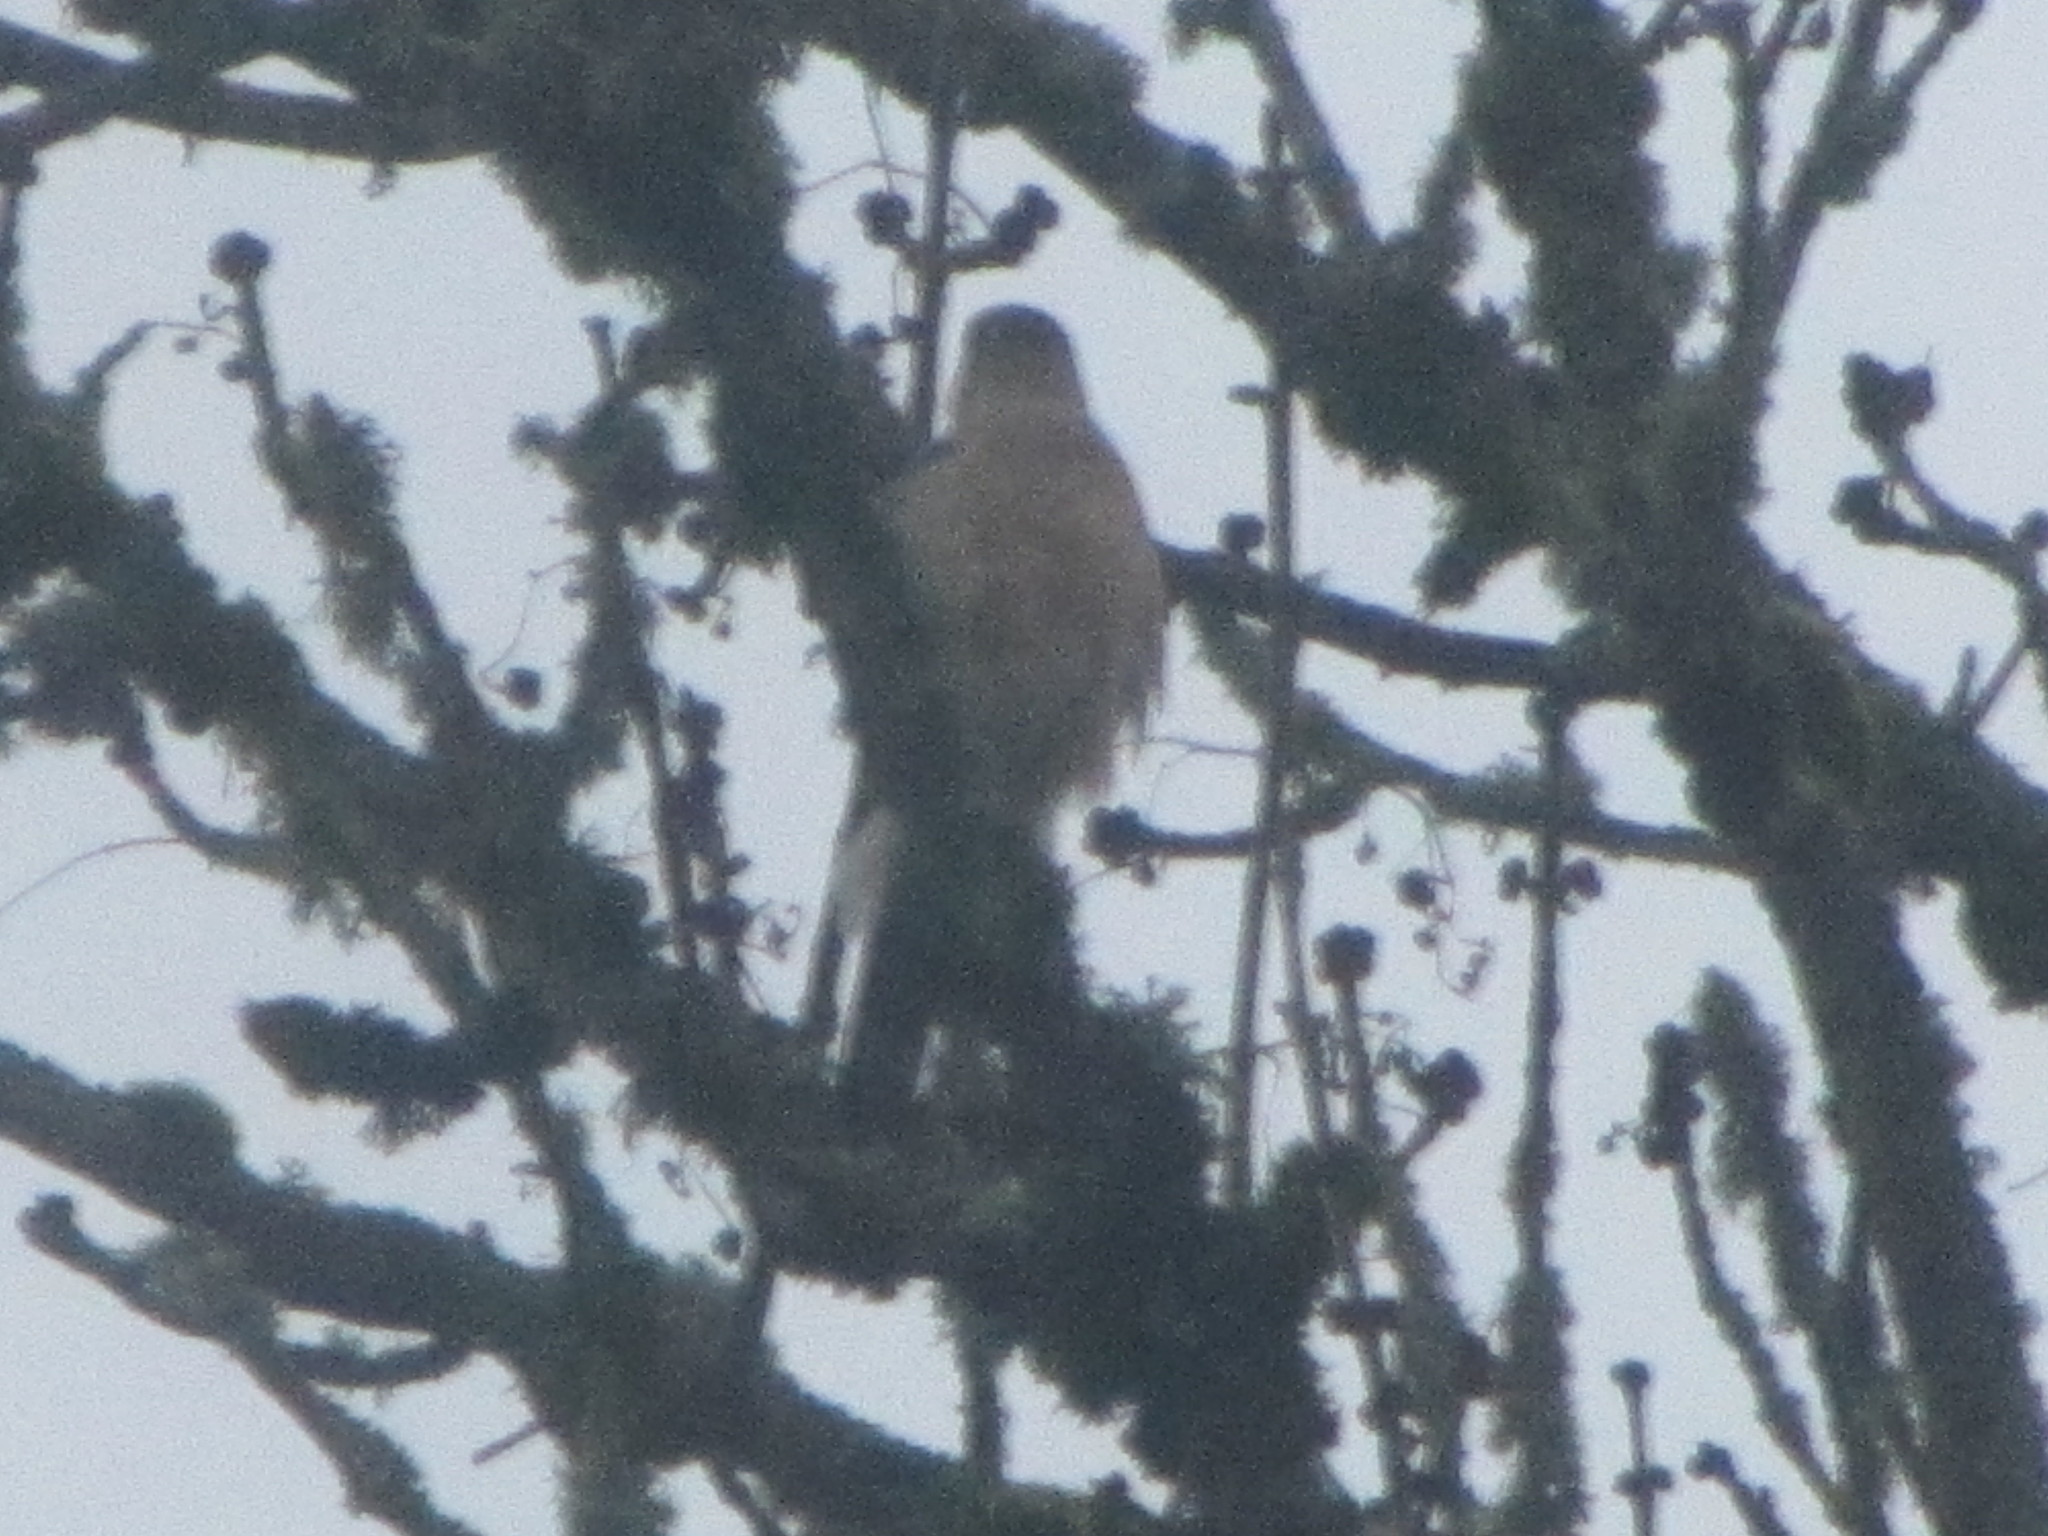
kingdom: Animalia
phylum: Chordata
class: Aves
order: Accipitriformes
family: Accipitridae
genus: Accipiter
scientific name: Accipiter cooperii
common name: Cooper's hawk
